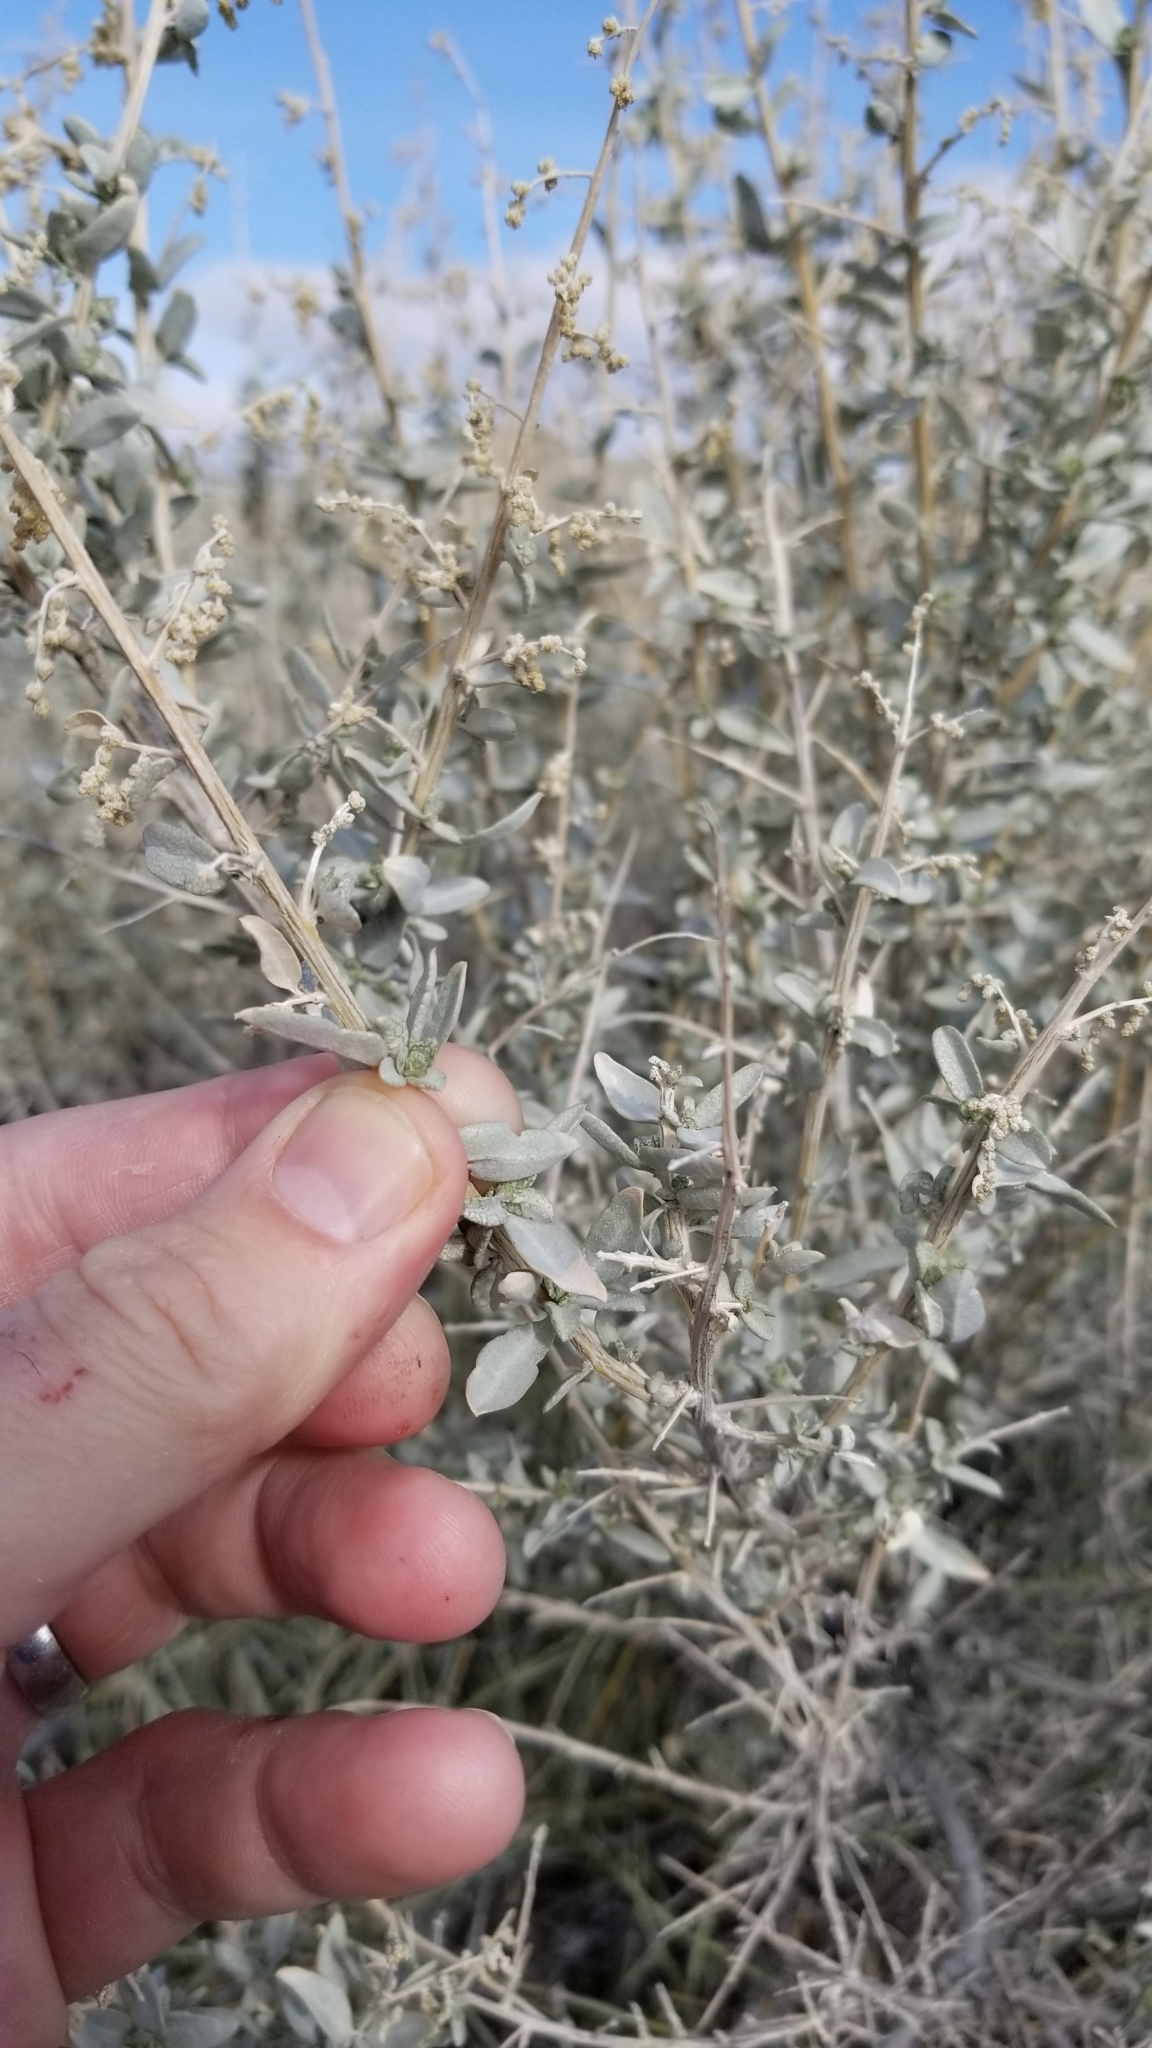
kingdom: Plantae
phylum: Tracheophyta
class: Magnoliopsida
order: Caryophyllales
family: Amaranthaceae
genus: Atriplex
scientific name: Atriplex torreyi
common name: Torrey's saltbush
